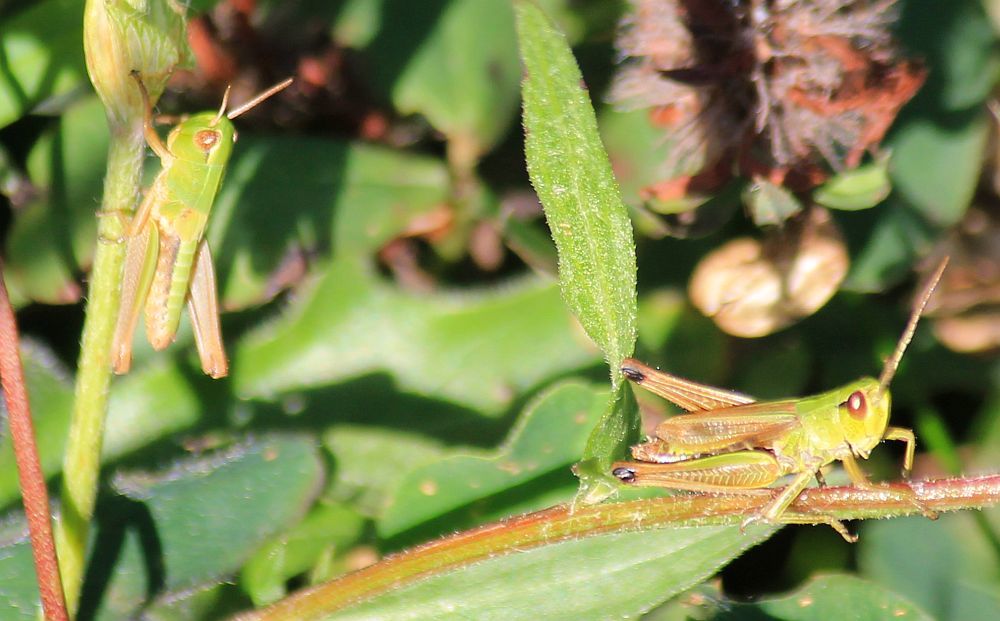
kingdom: Animalia
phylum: Arthropoda
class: Insecta
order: Orthoptera
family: Acrididae
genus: Pseudochorthippus
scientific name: Pseudochorthippus parallelus
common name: Meadow grasshopper
